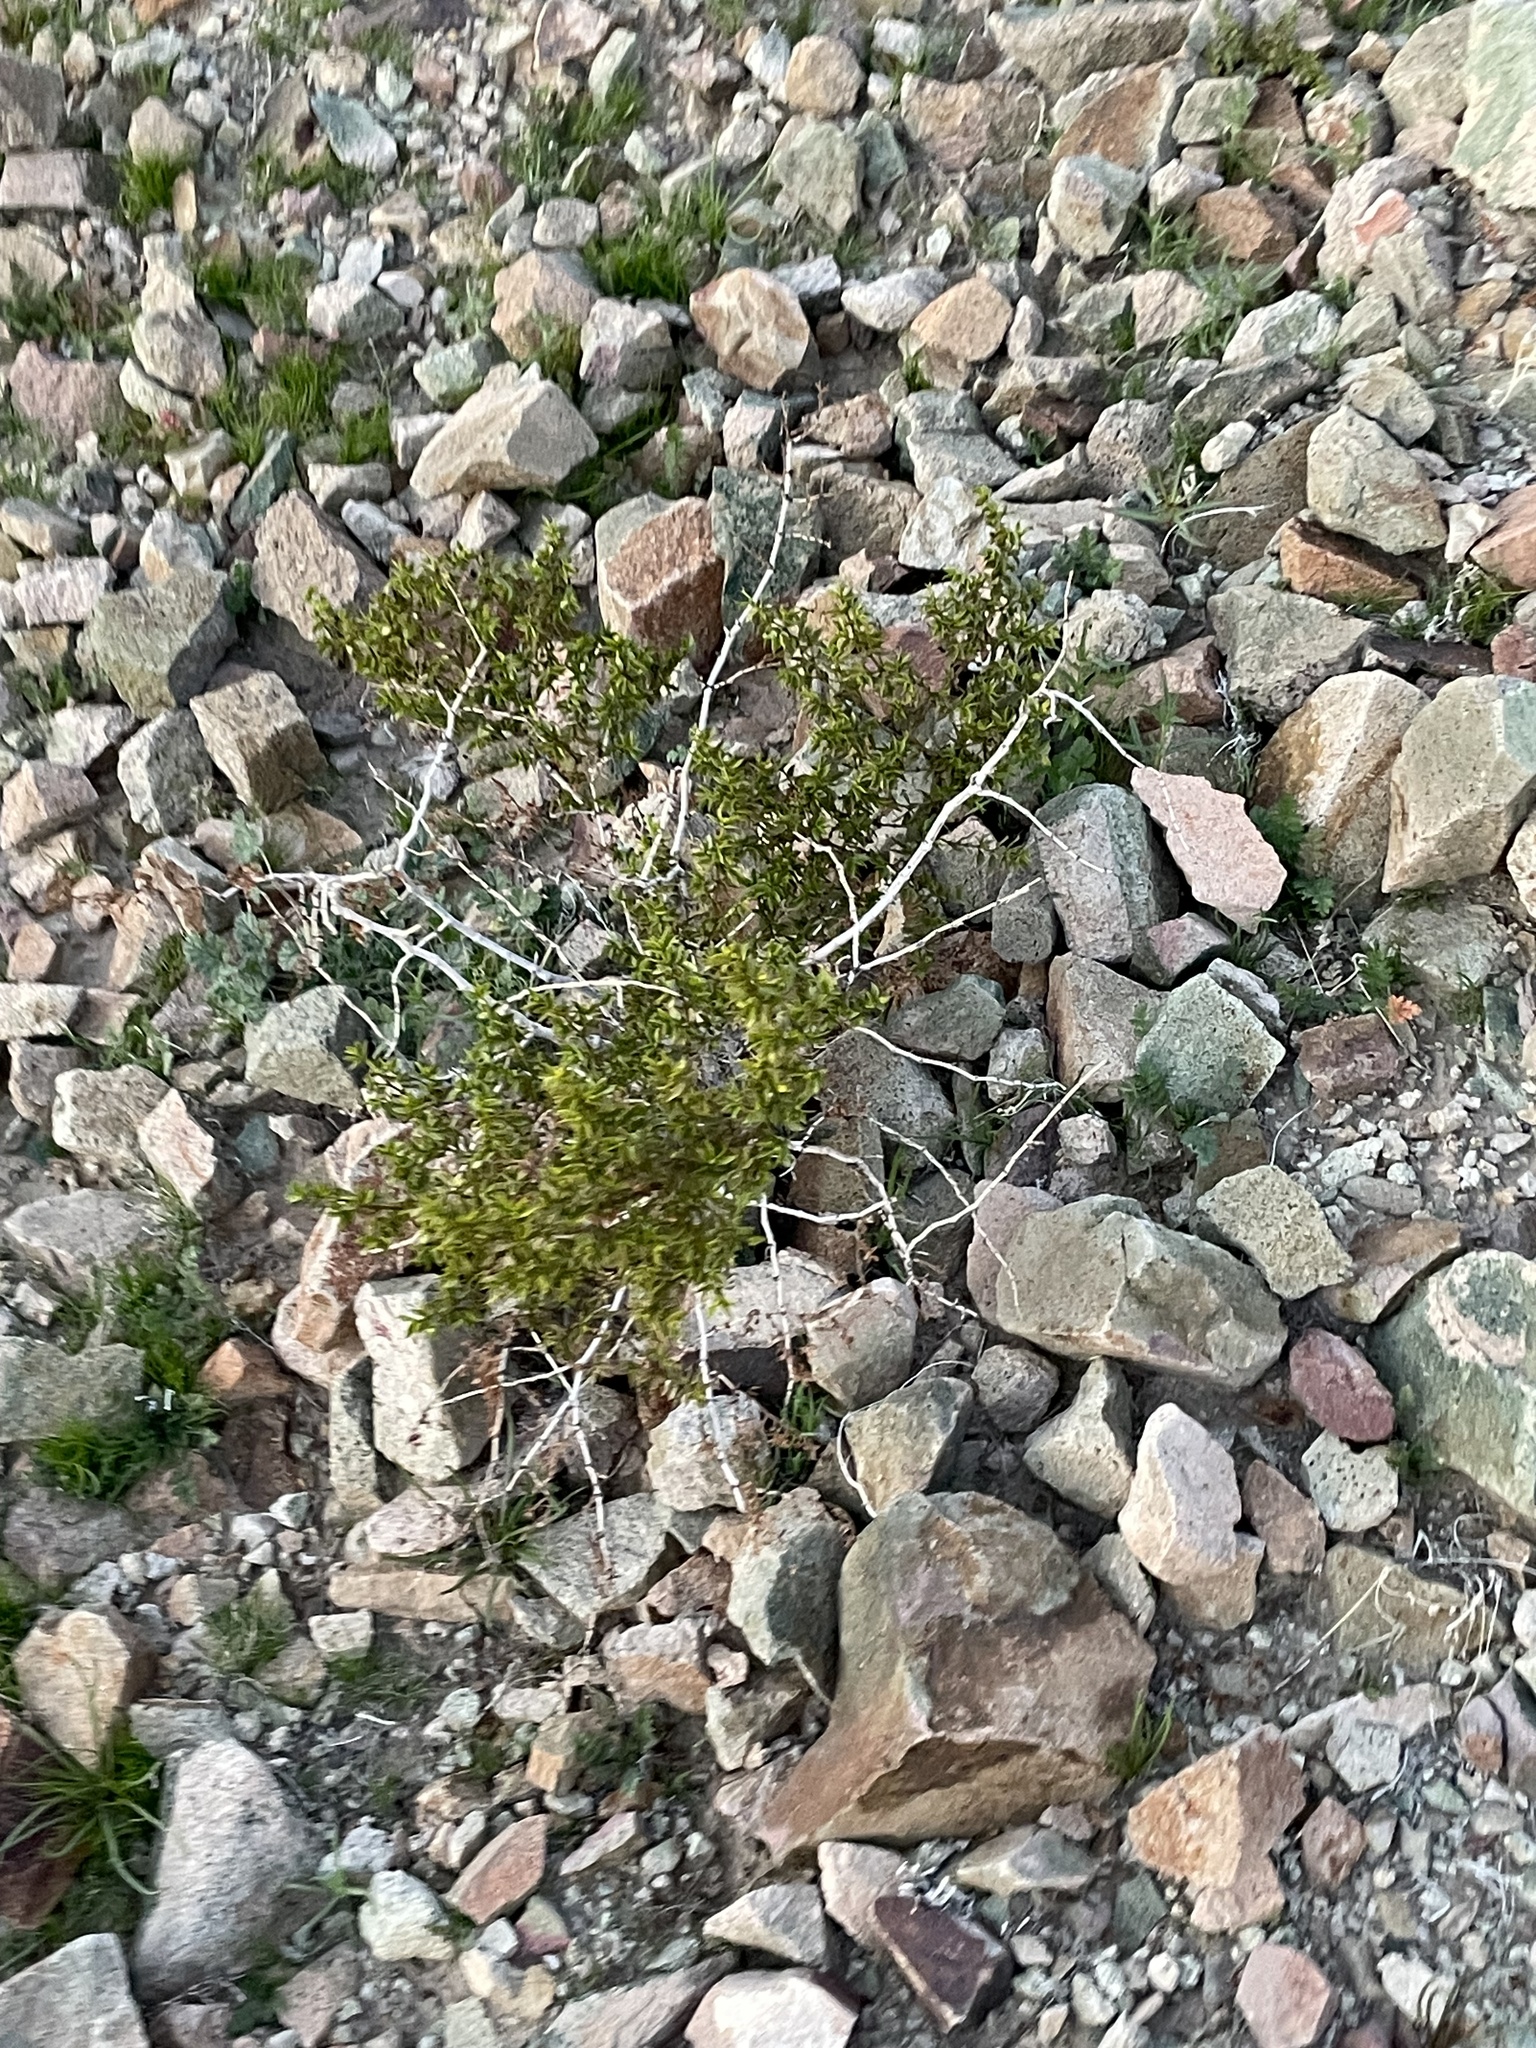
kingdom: Plantae
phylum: Tracheophyta
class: Magnoliopsida
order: Zygophyllales
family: Zygophyllaceae
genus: Larrea
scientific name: Larrea tridentata
